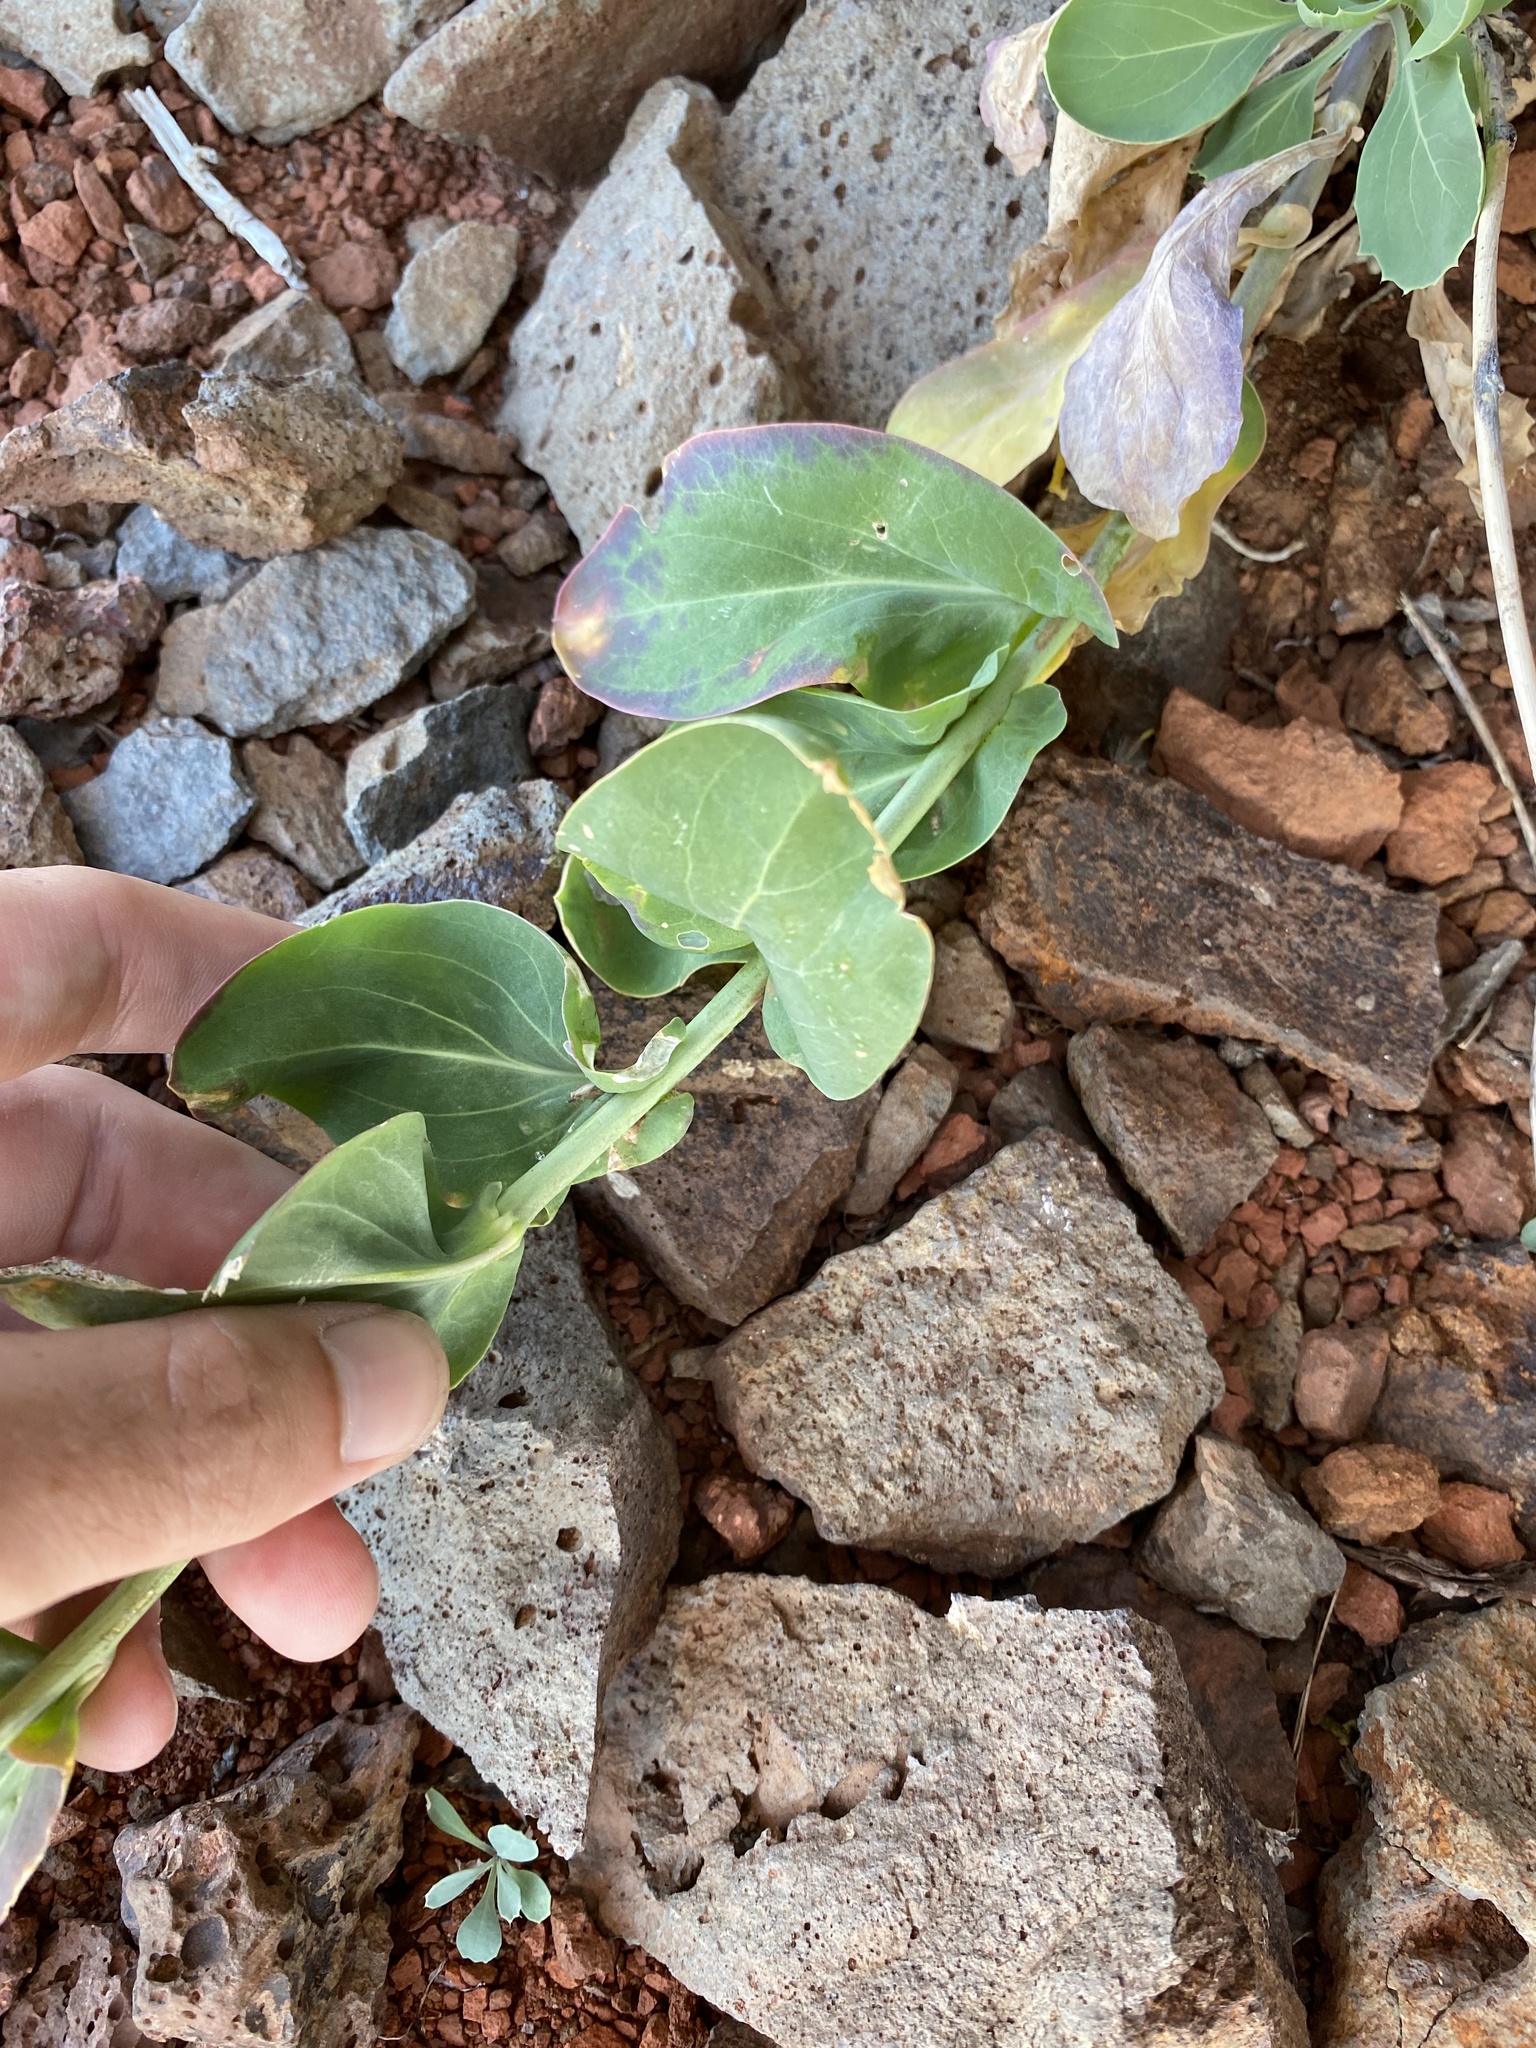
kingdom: Plantae
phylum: Tracheophyta
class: Magnoliopsida
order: Brassicales
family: Brassicaceae
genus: Streptanthus
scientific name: Streptanthus cordatus
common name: Heart-leaf jewel-flower
